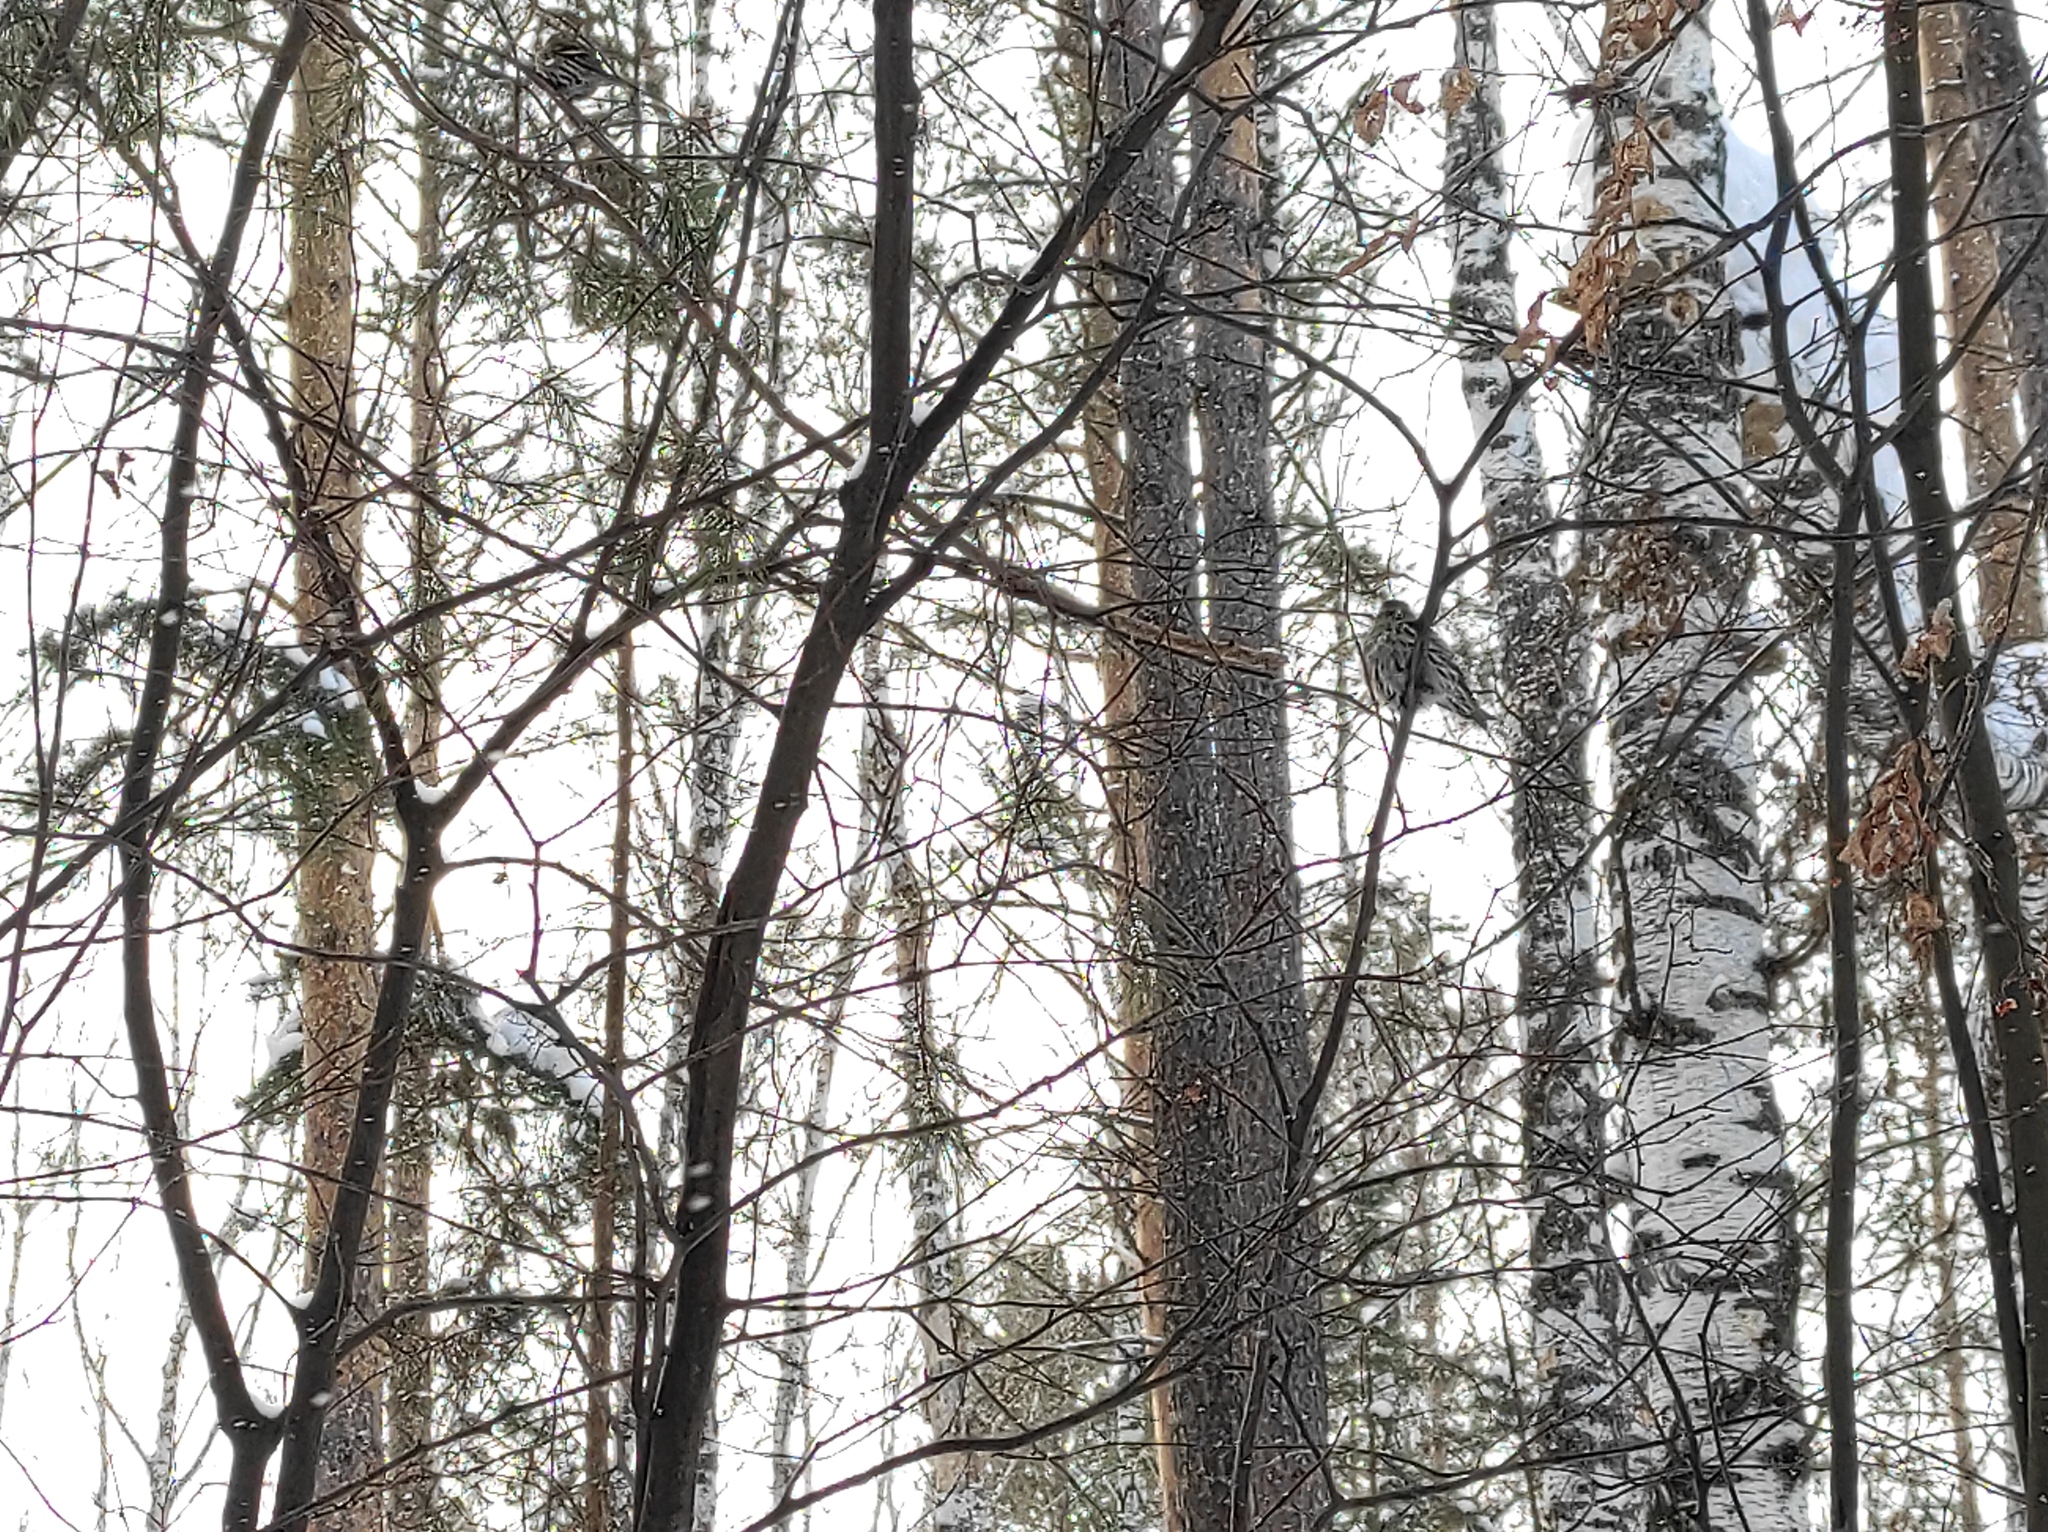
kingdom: Animalia
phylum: Chordata
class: Aves
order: Passeriformes
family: Fringillidae
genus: Spinus
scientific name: Spinus spinus
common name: Eurasian siskin
